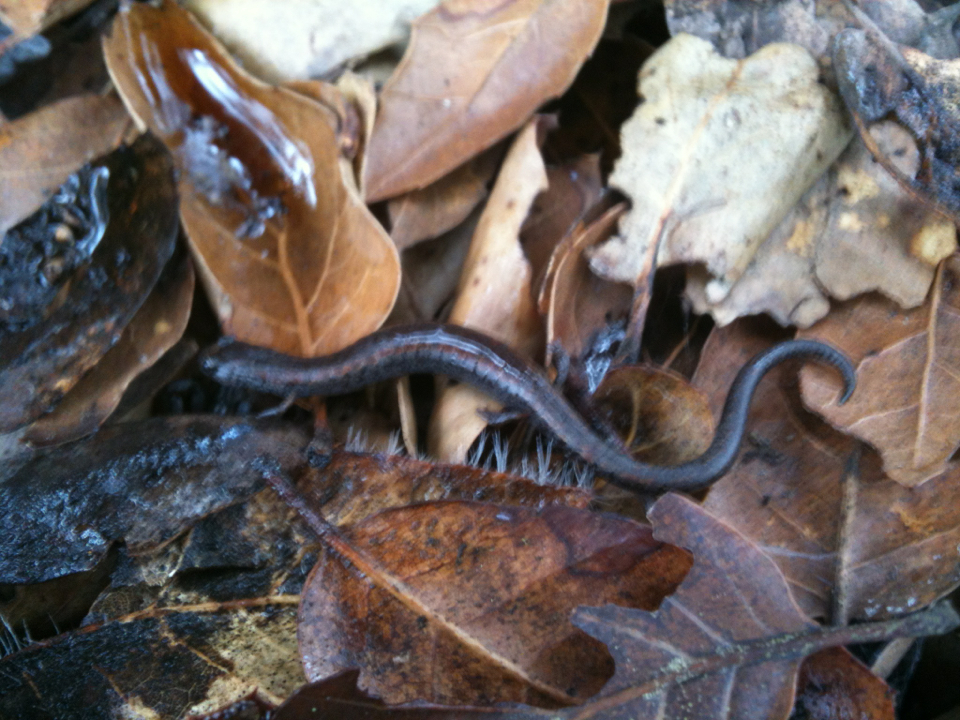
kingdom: Animalia
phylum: Chordata
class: Amphibia
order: Caudata
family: Plethodontidae
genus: Batrachoseps
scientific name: Batrachoseps attenuatus
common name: California slender salamander
